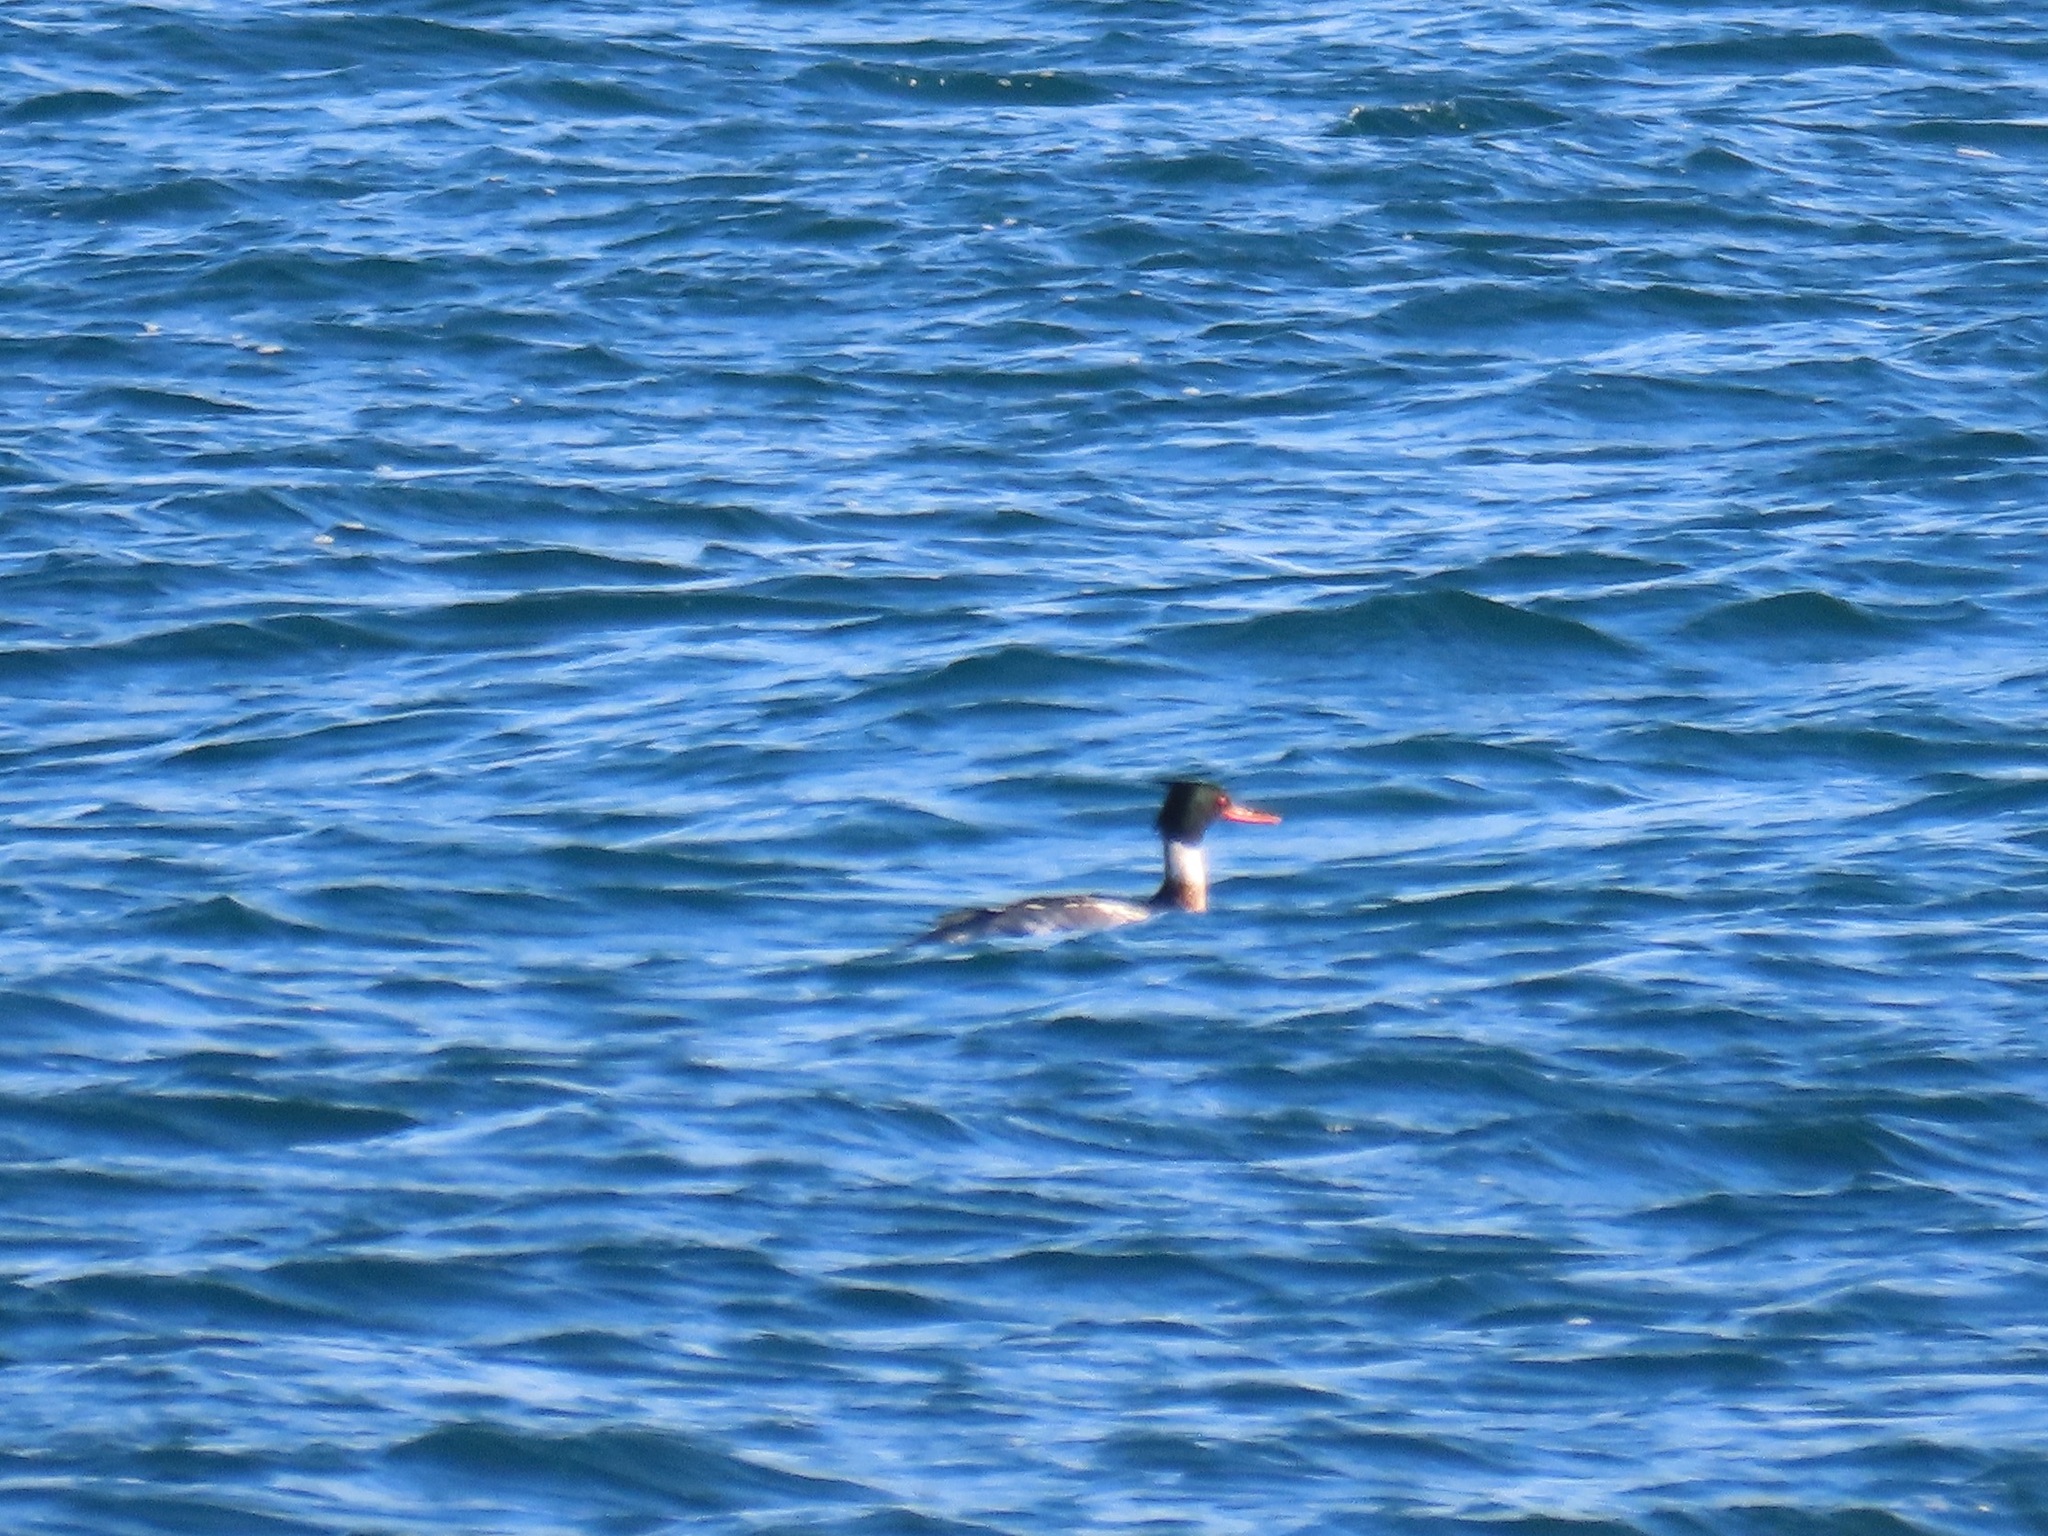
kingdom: Animalia
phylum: Chordata
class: Aves
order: Anseriformes
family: Anatidae
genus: Mergus
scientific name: Mergus serrator
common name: Red-breasted merganser
